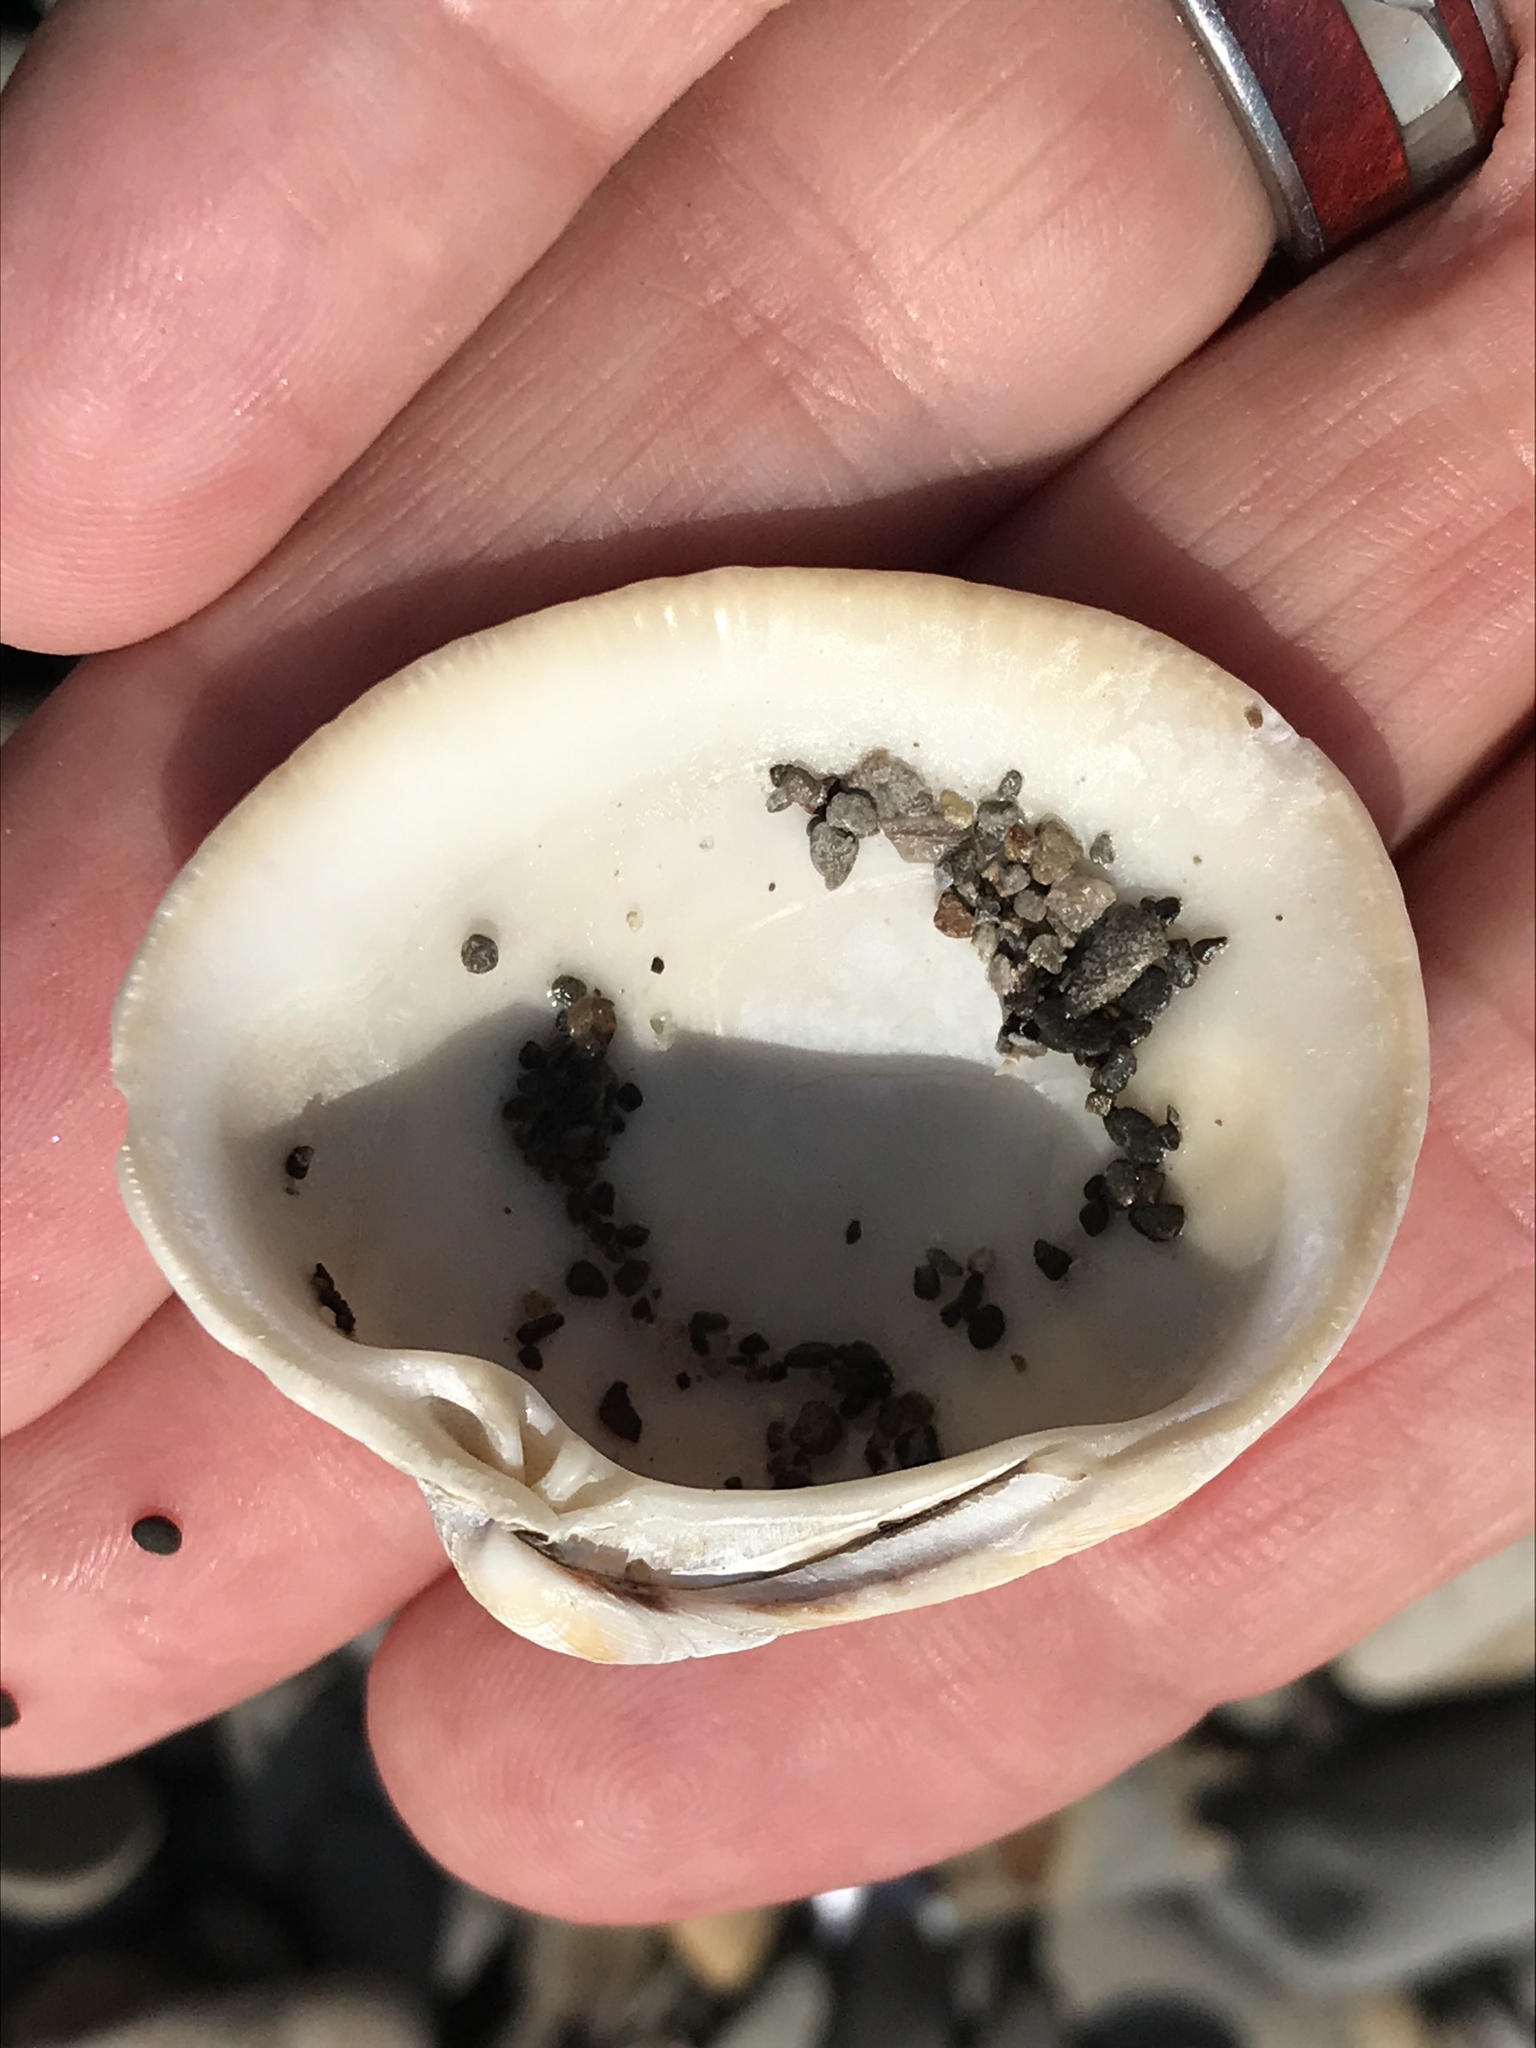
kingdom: Animalia
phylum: Mollusca
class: Bivalvia
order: Venerida
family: Veneridae
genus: Leukoma
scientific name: Leukoma staminea
